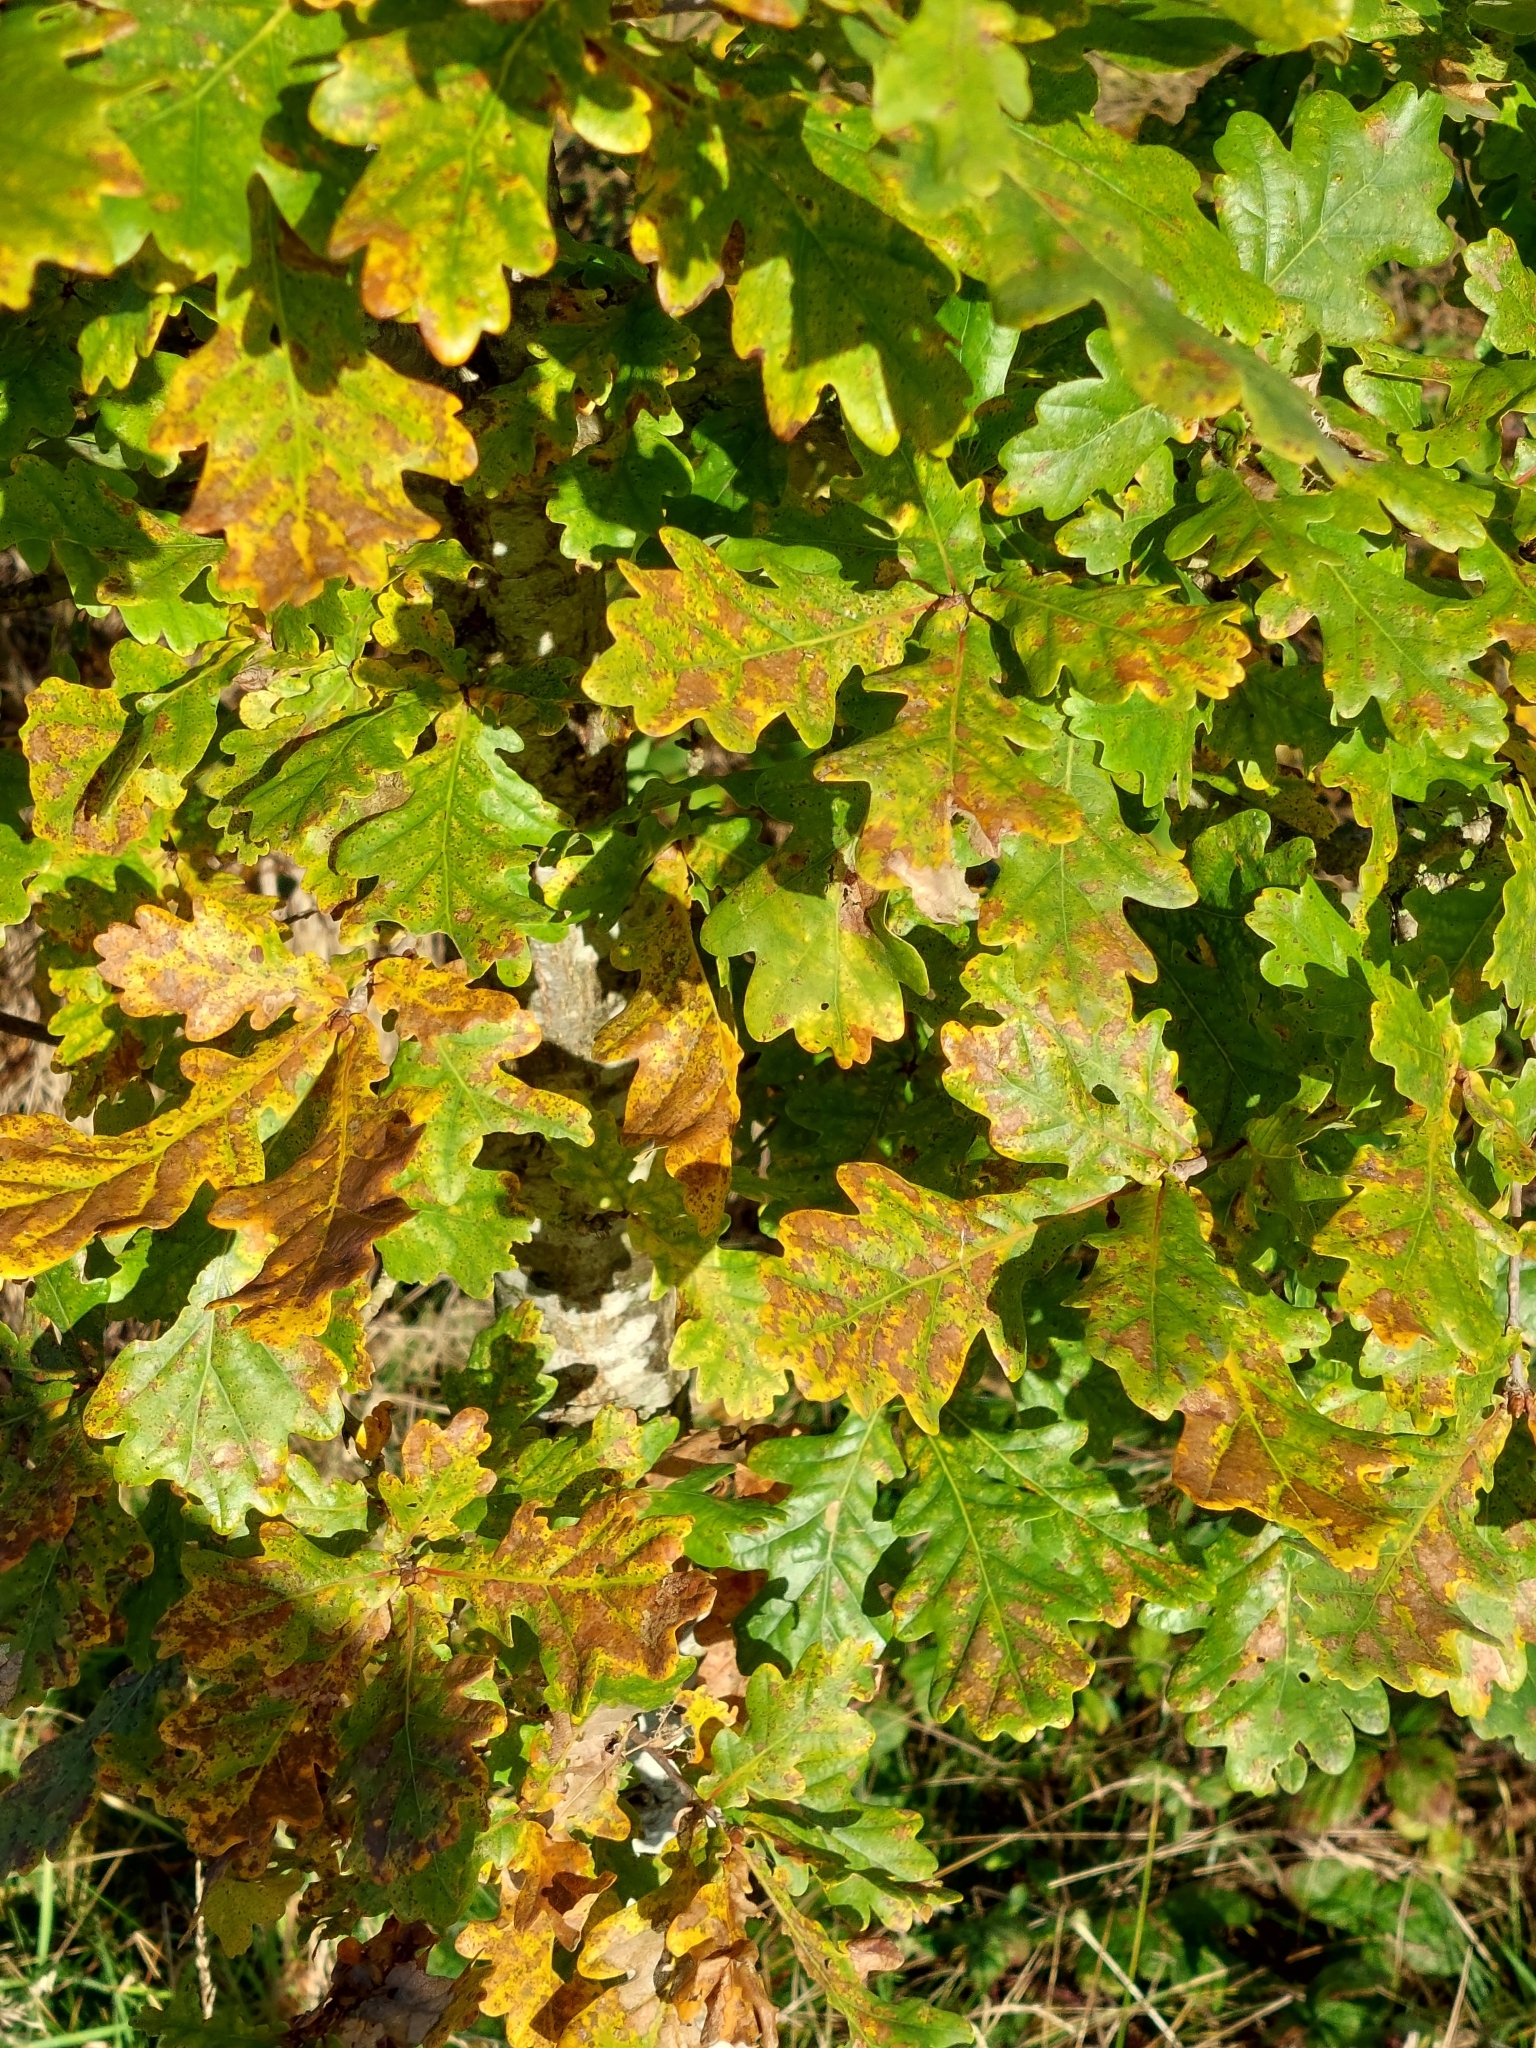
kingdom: Plantae
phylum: Tracheophyta
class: Magnoliopsida
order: Fagales
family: Fagaceae
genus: Quercus
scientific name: Quercus robur
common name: Pedunculate oak
